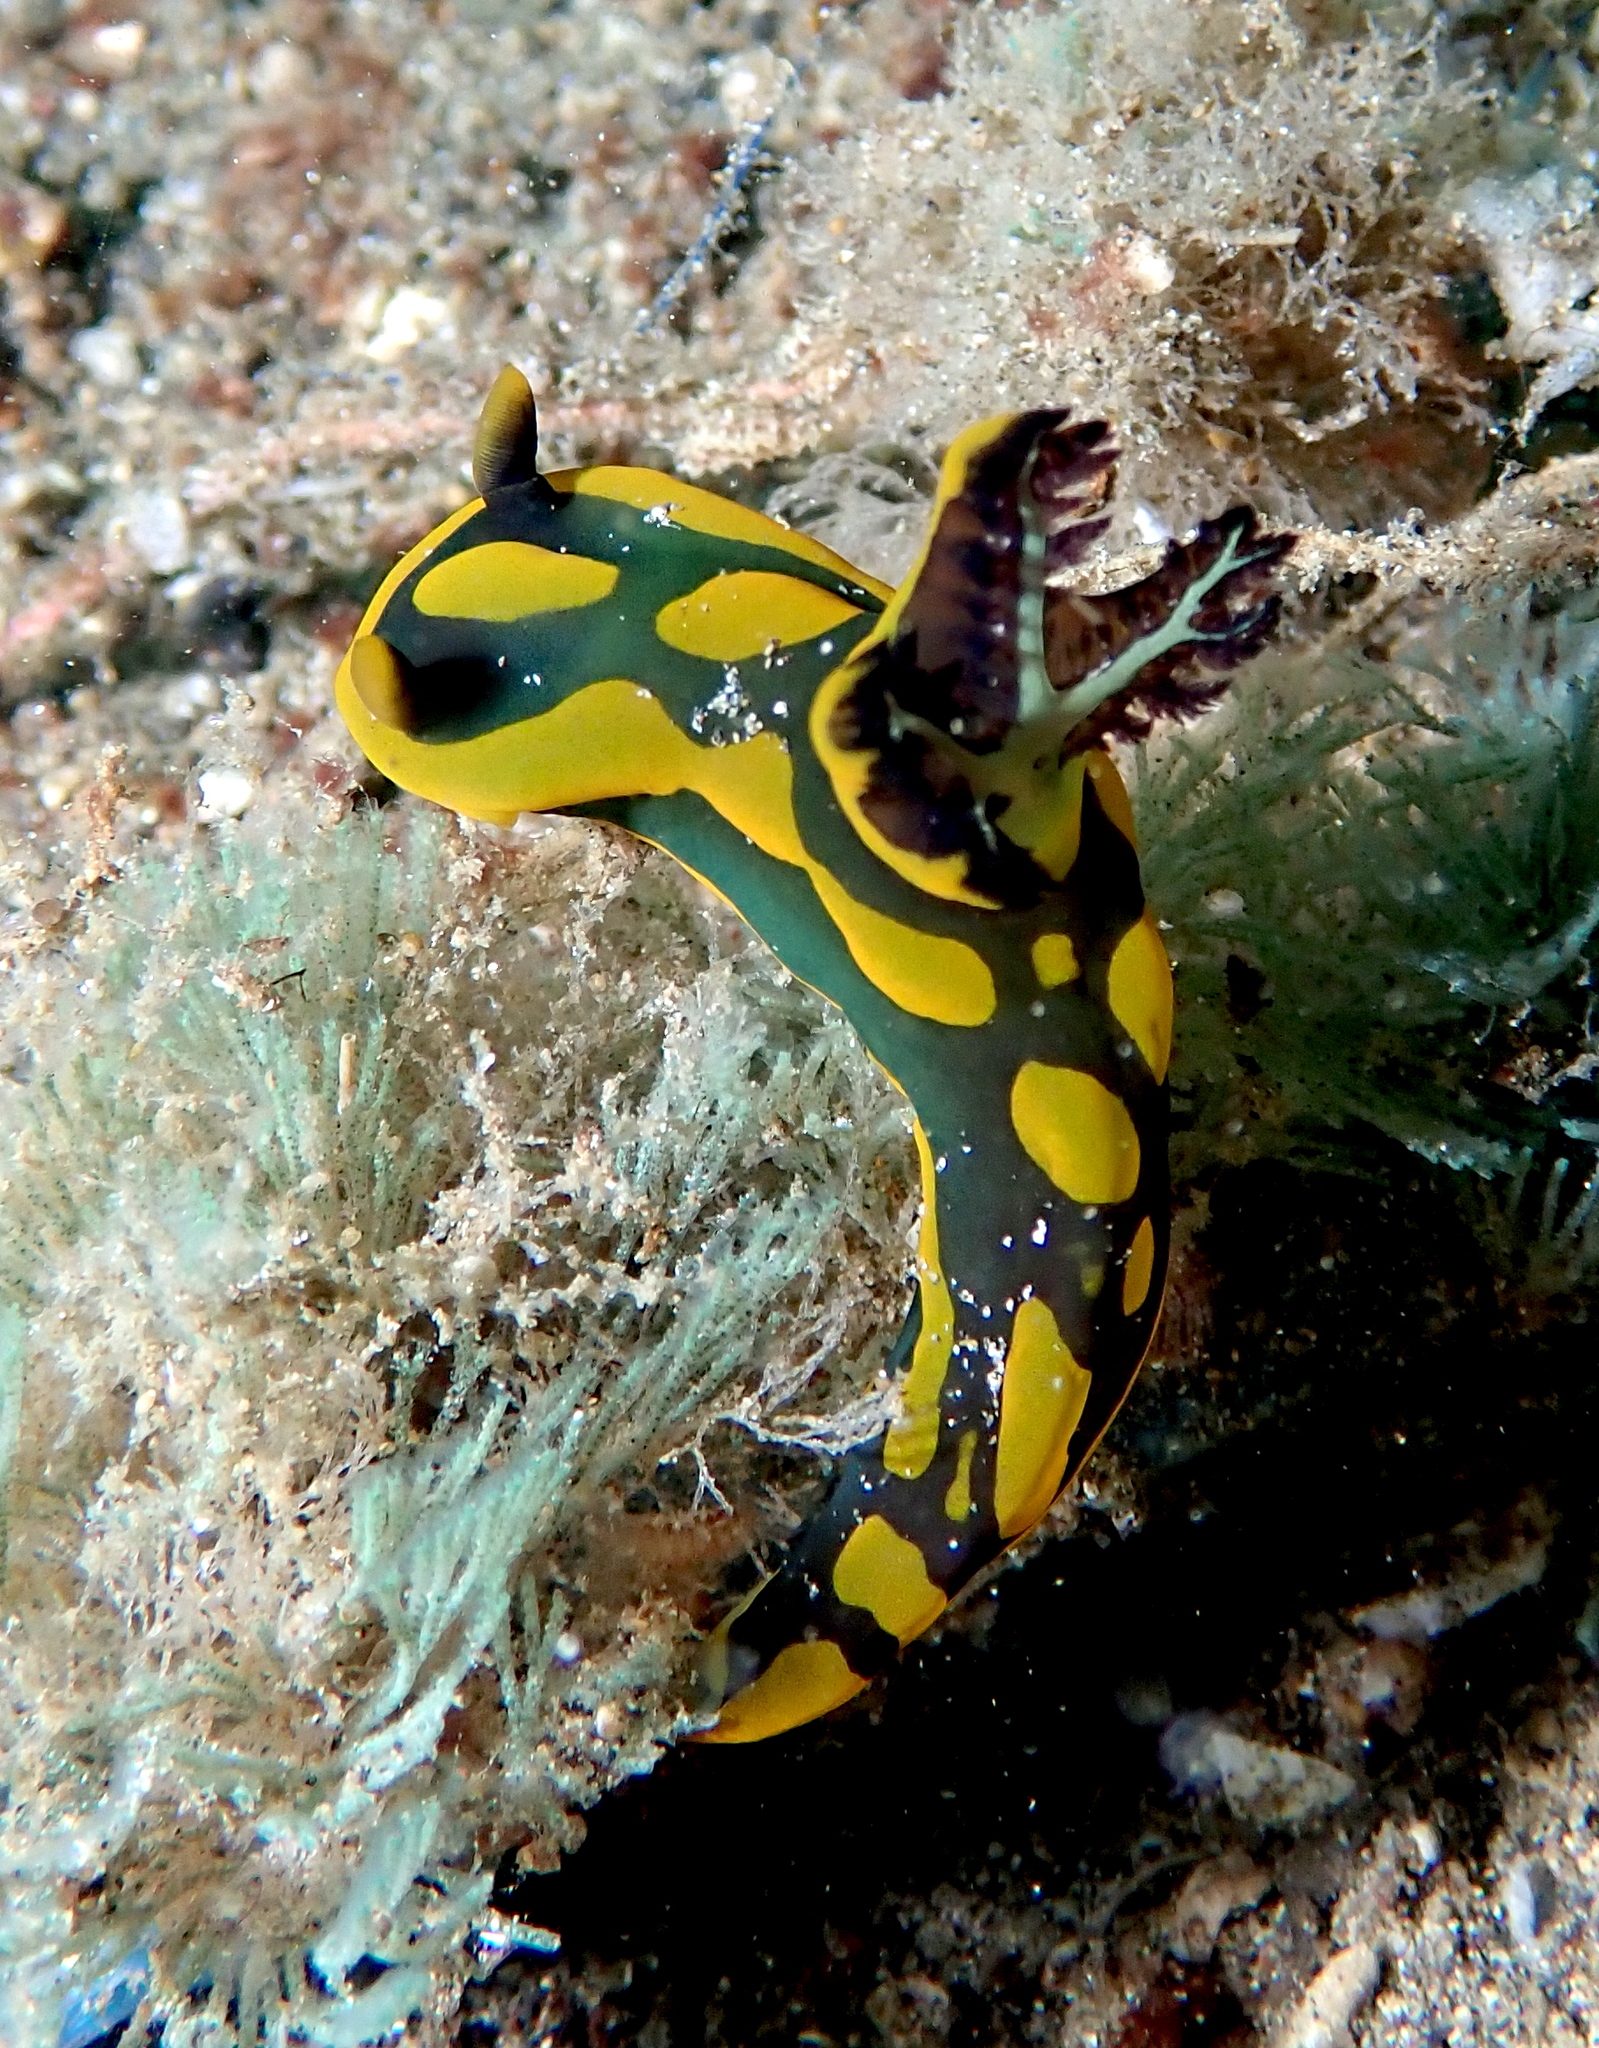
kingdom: Animalia
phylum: Mollusca
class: Gastropoda
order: Nudibranchia
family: Polyceridae
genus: Tambja
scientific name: Tambja gabrielae
